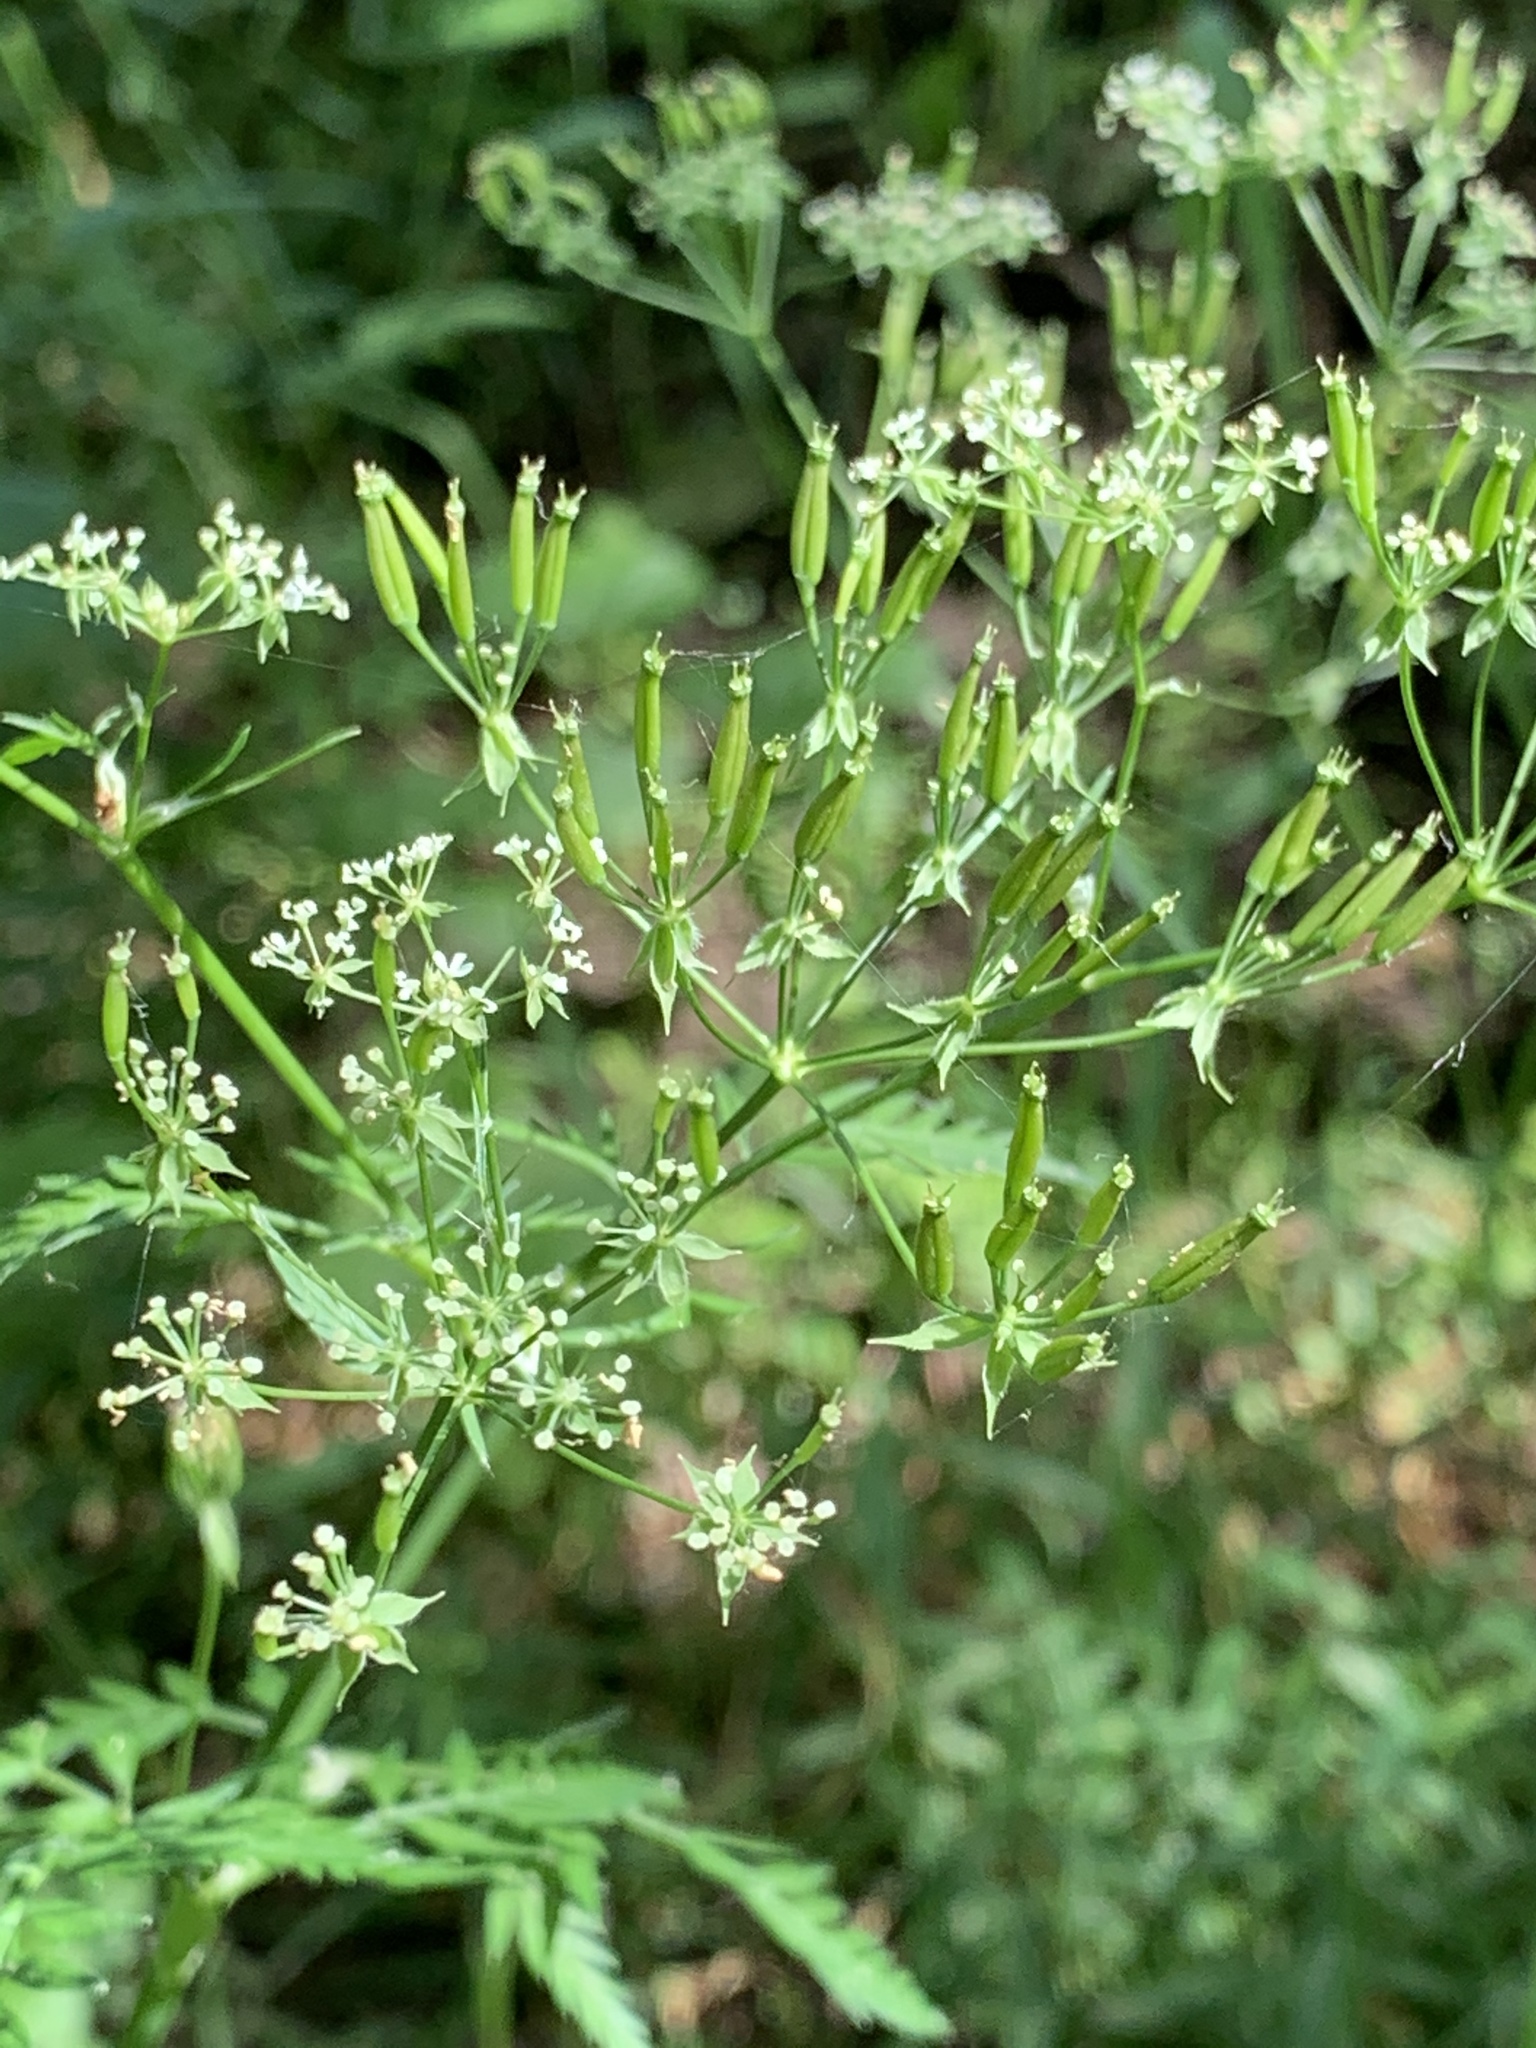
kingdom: Plantae
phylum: Tracheophyta
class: Magnoliopsida
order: Apiales
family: Apiaceae
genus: Anthriscus
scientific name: Anthriscus sylvestris
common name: Cow parsley
